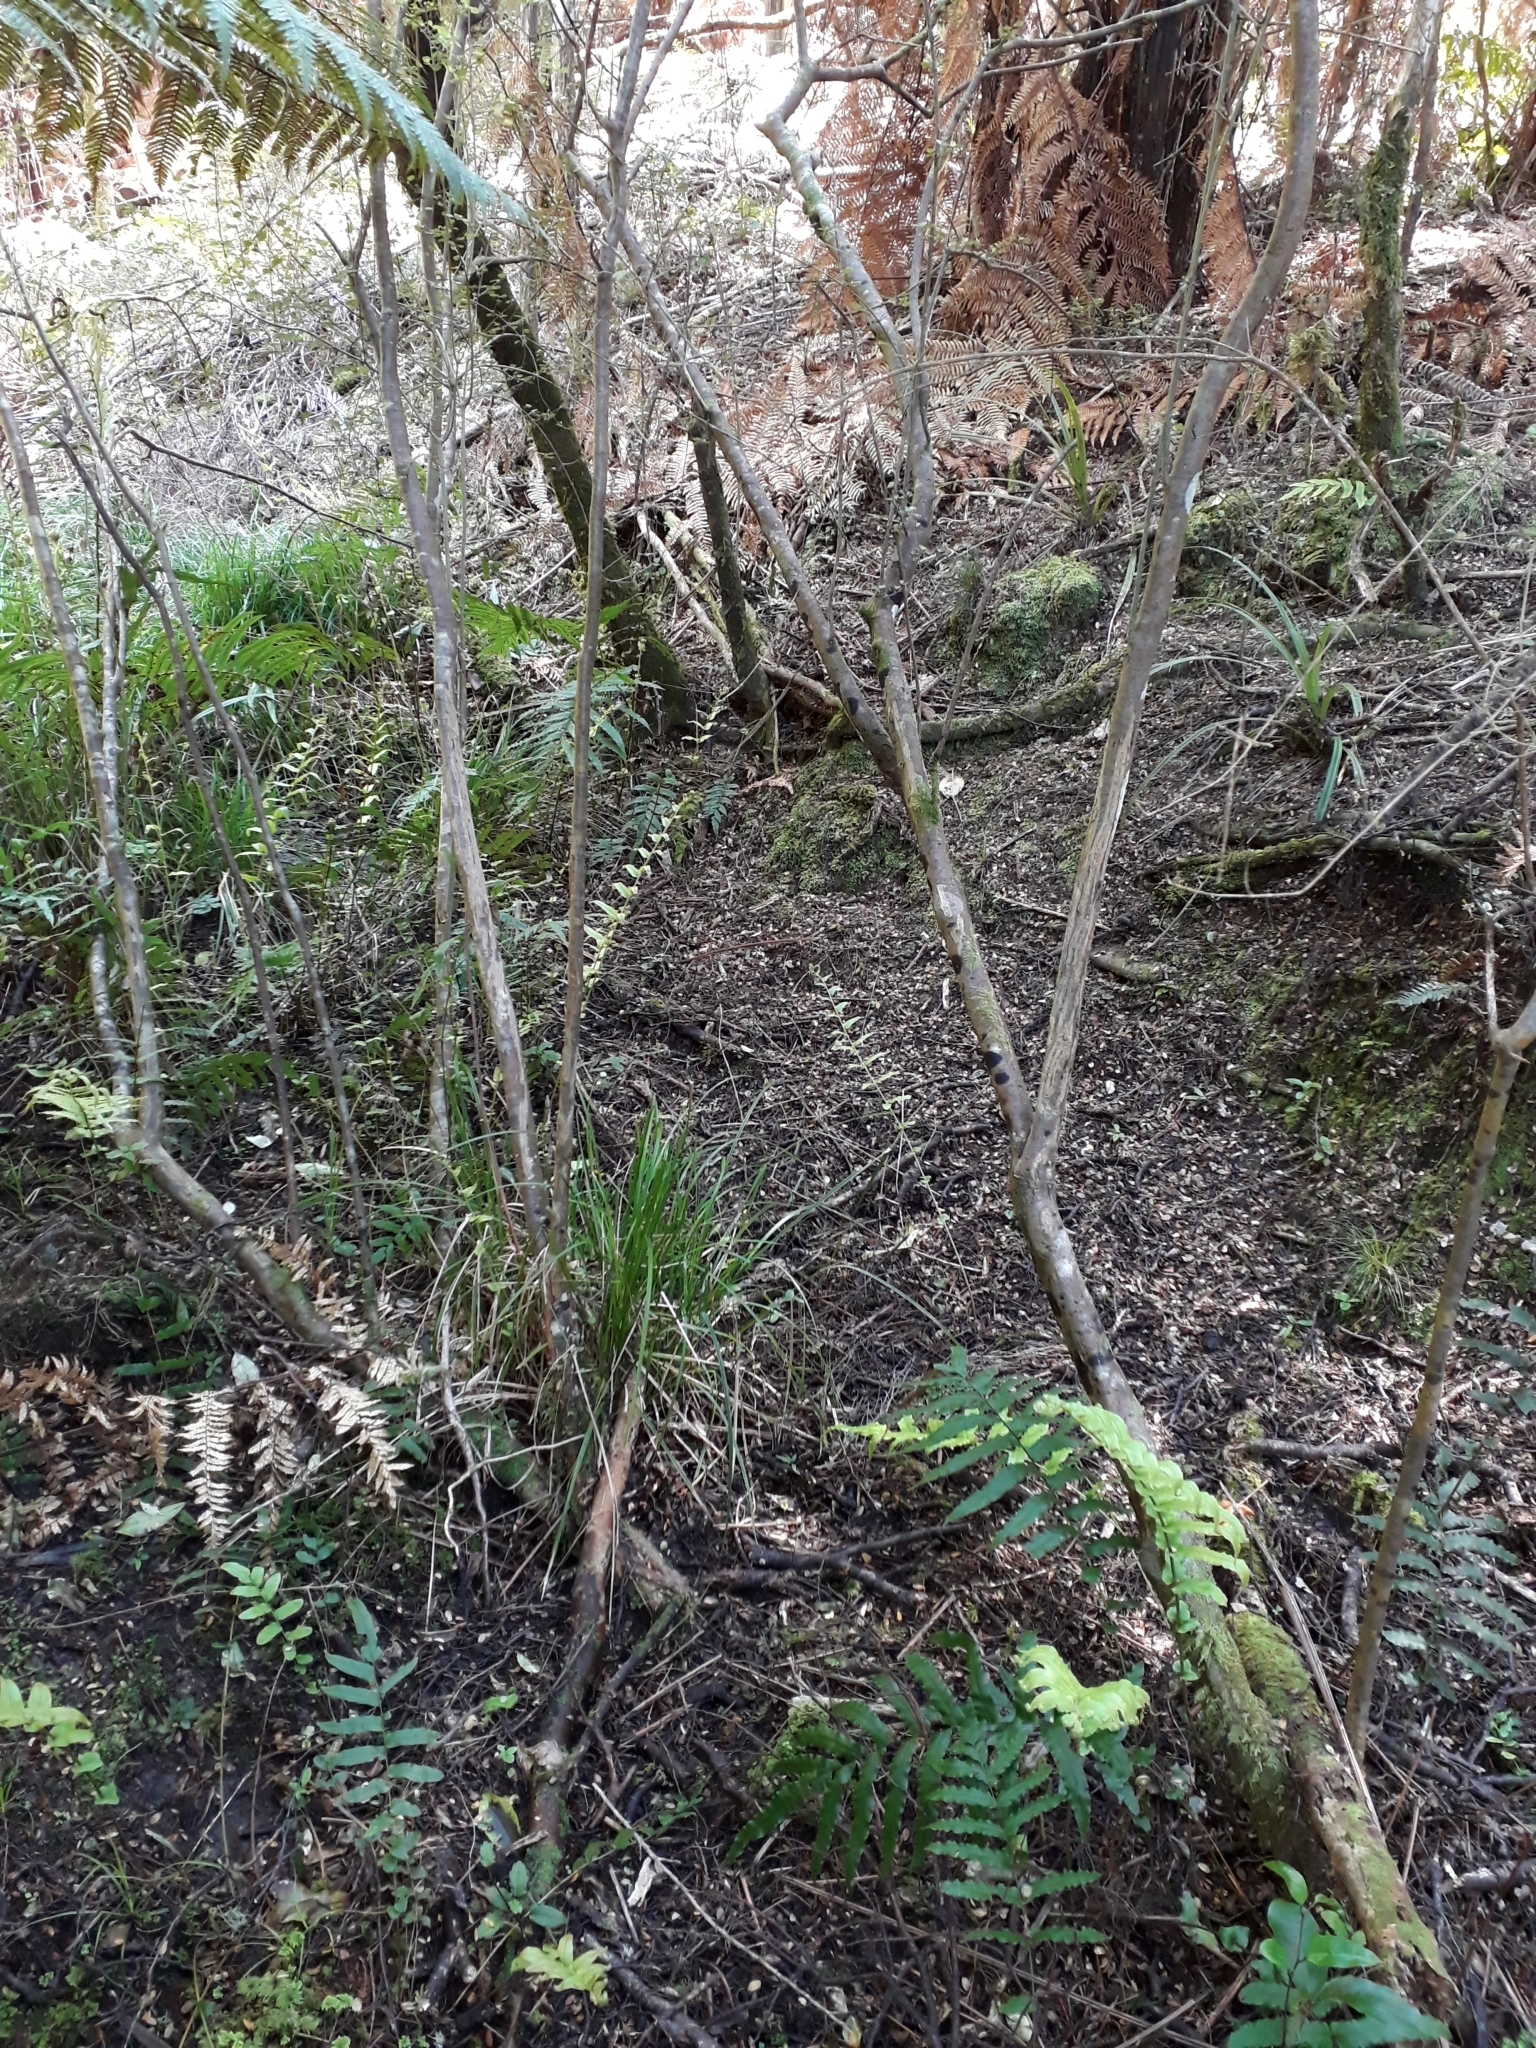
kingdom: Plantae
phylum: Tracheophyta
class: Magnoliopsida
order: Gentianales
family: Rubiaceae
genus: Coprosma
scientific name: Coprosma tenuicaulis
